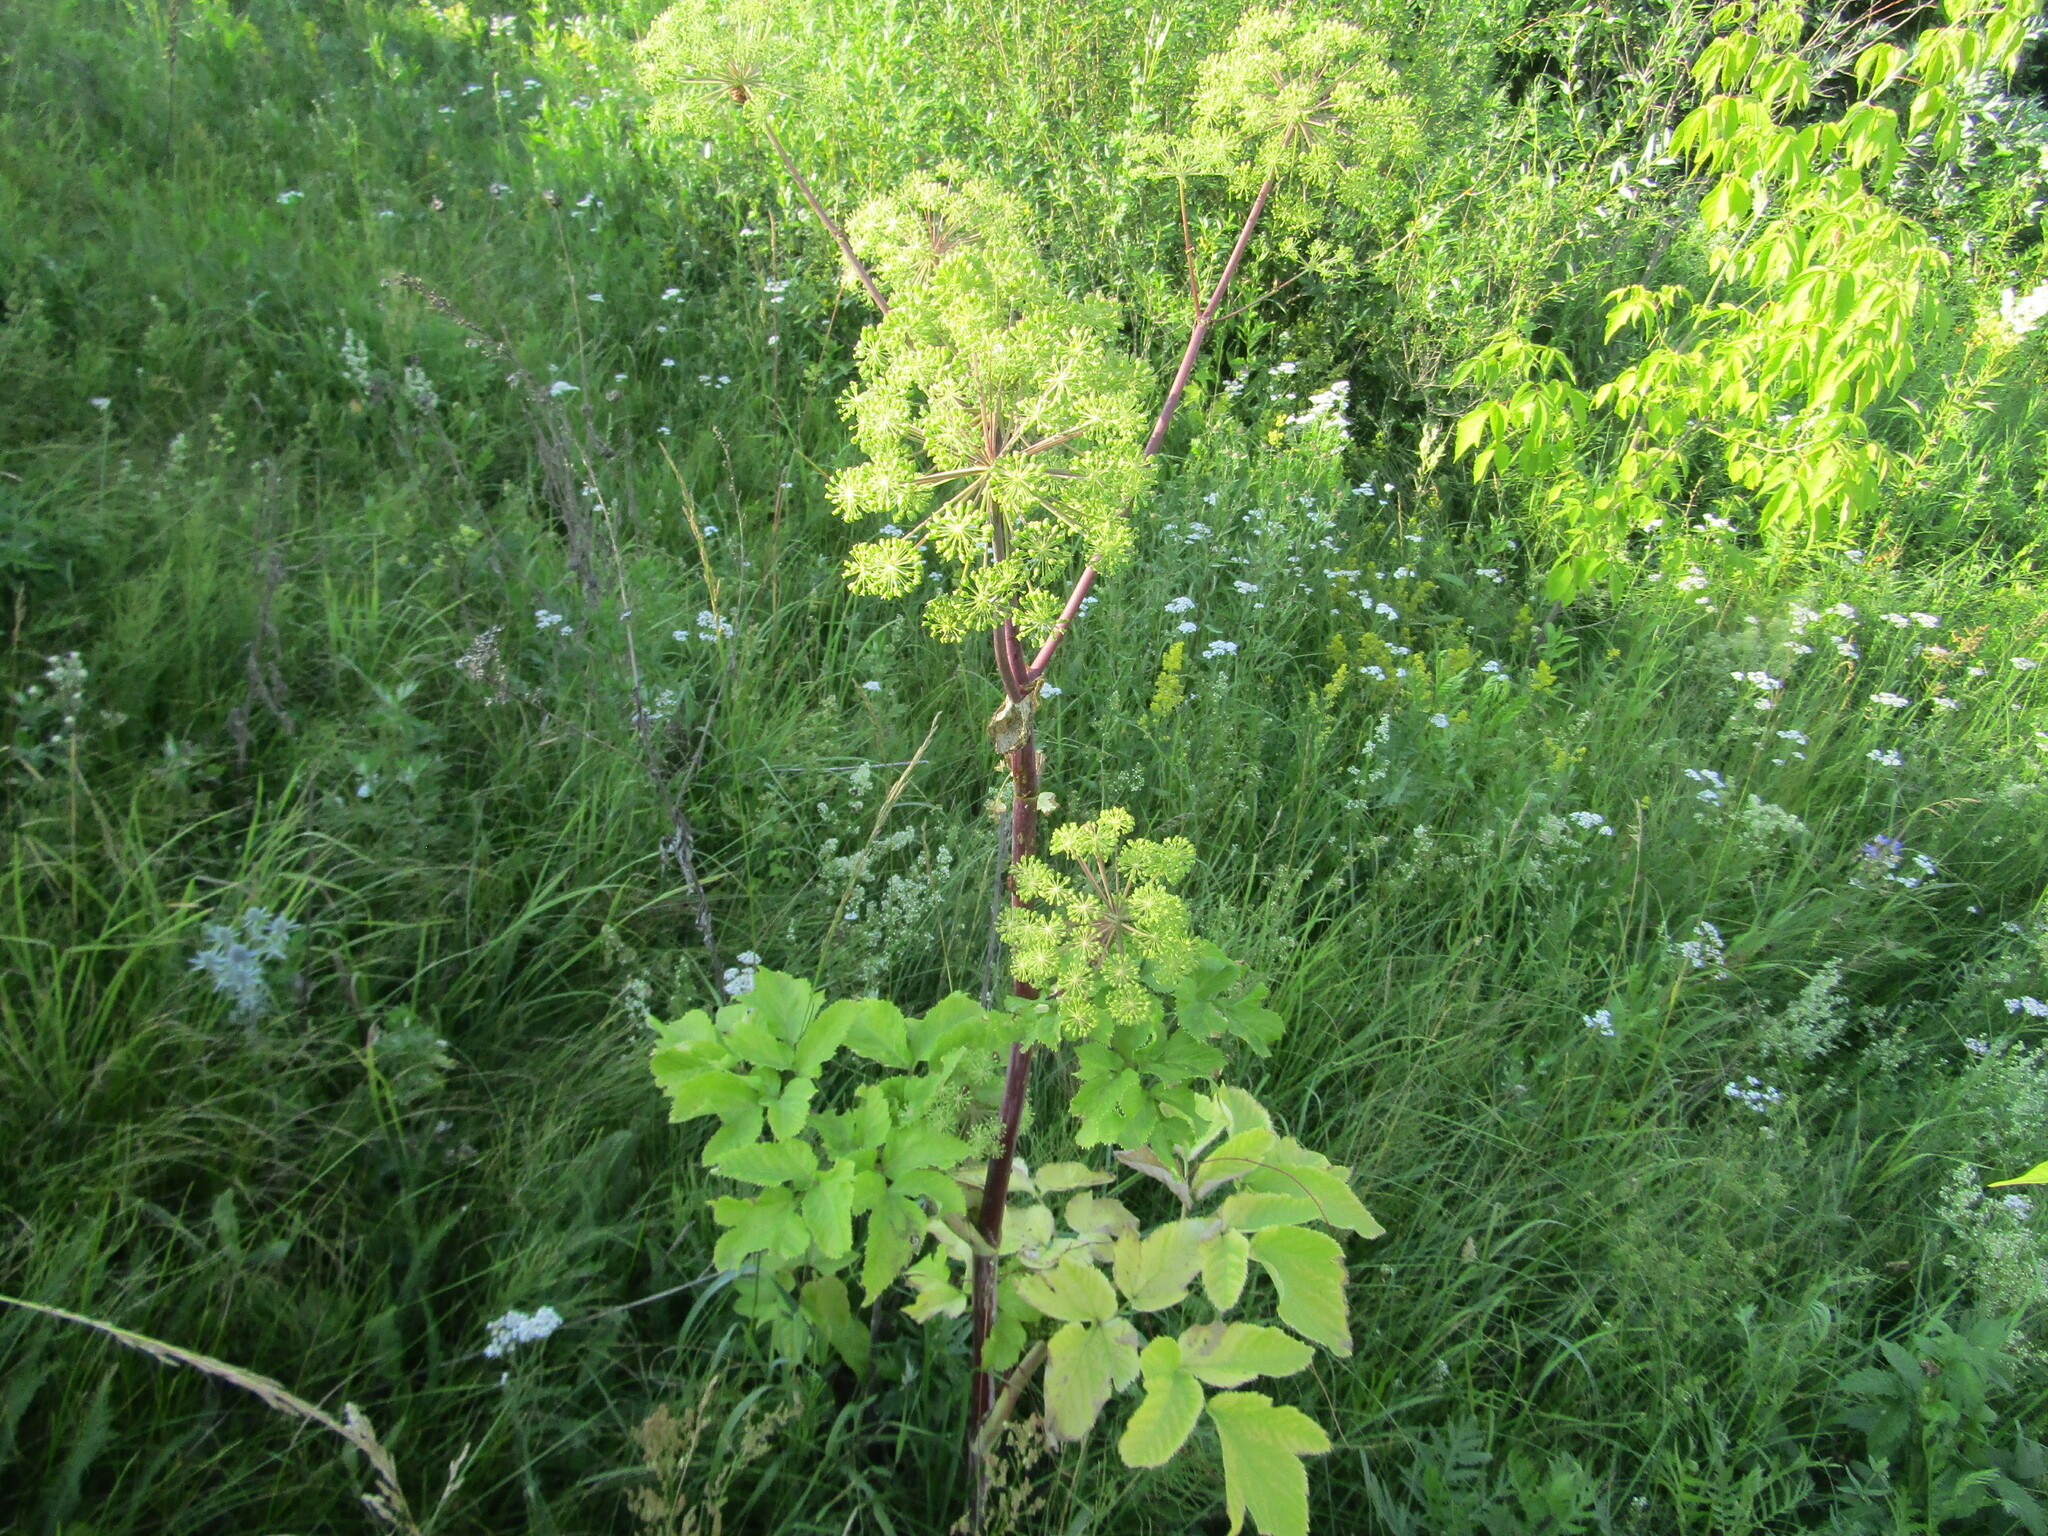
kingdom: Plantae
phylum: Tracheophyta
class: Magnoliopsida
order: Apiales
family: Apiaceae
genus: Angelica
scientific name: Angelica archangelica
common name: Garden angelica
